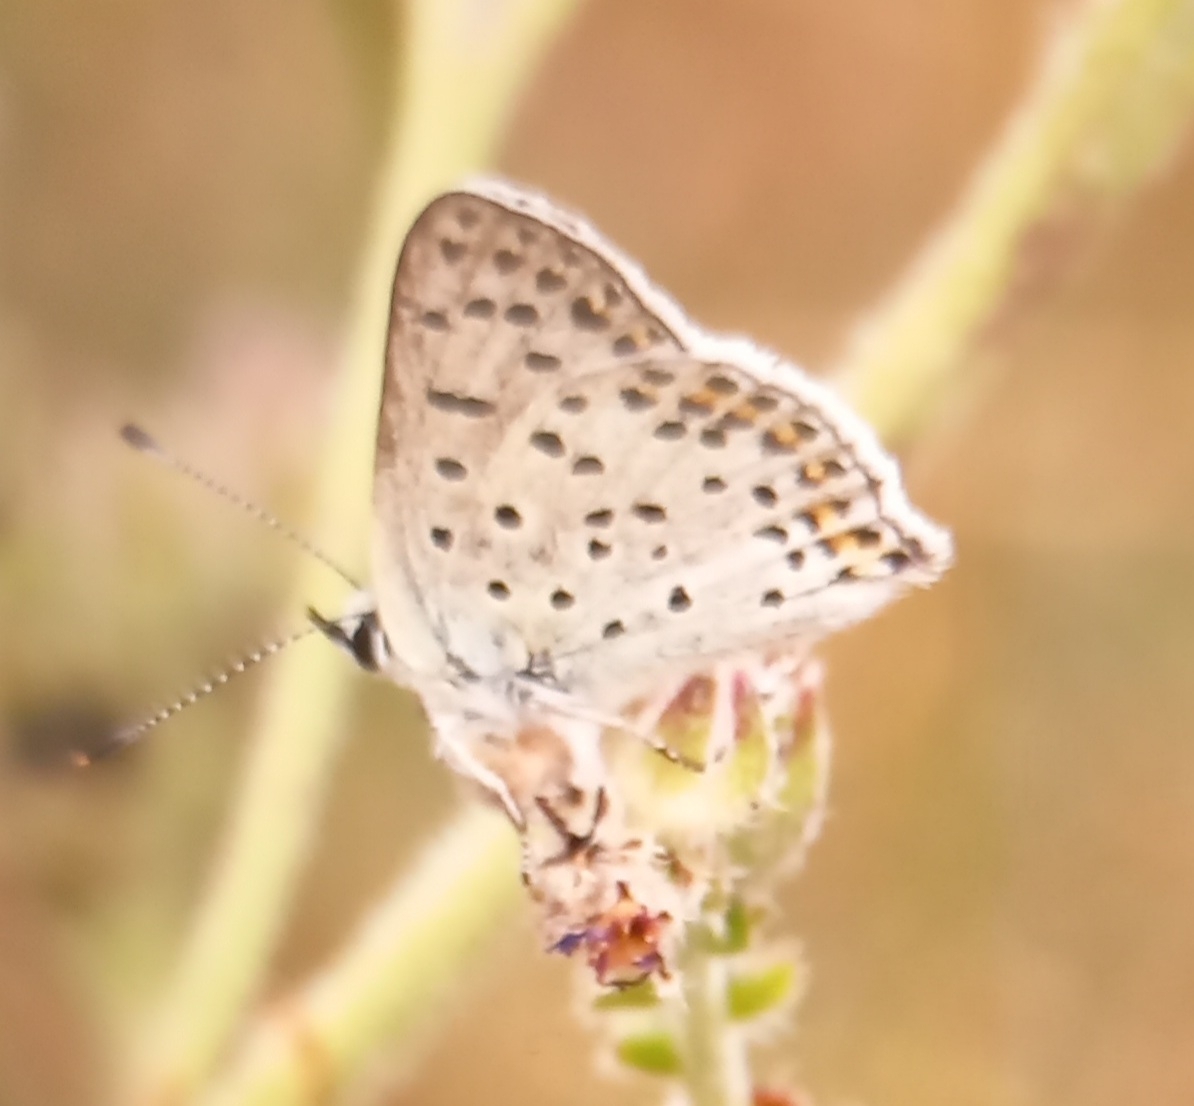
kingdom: Animalia
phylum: Arthropoda
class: Insecta
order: Lepidoptera
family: Lycaenidae
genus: Loweia
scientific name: Loweia tityrus
